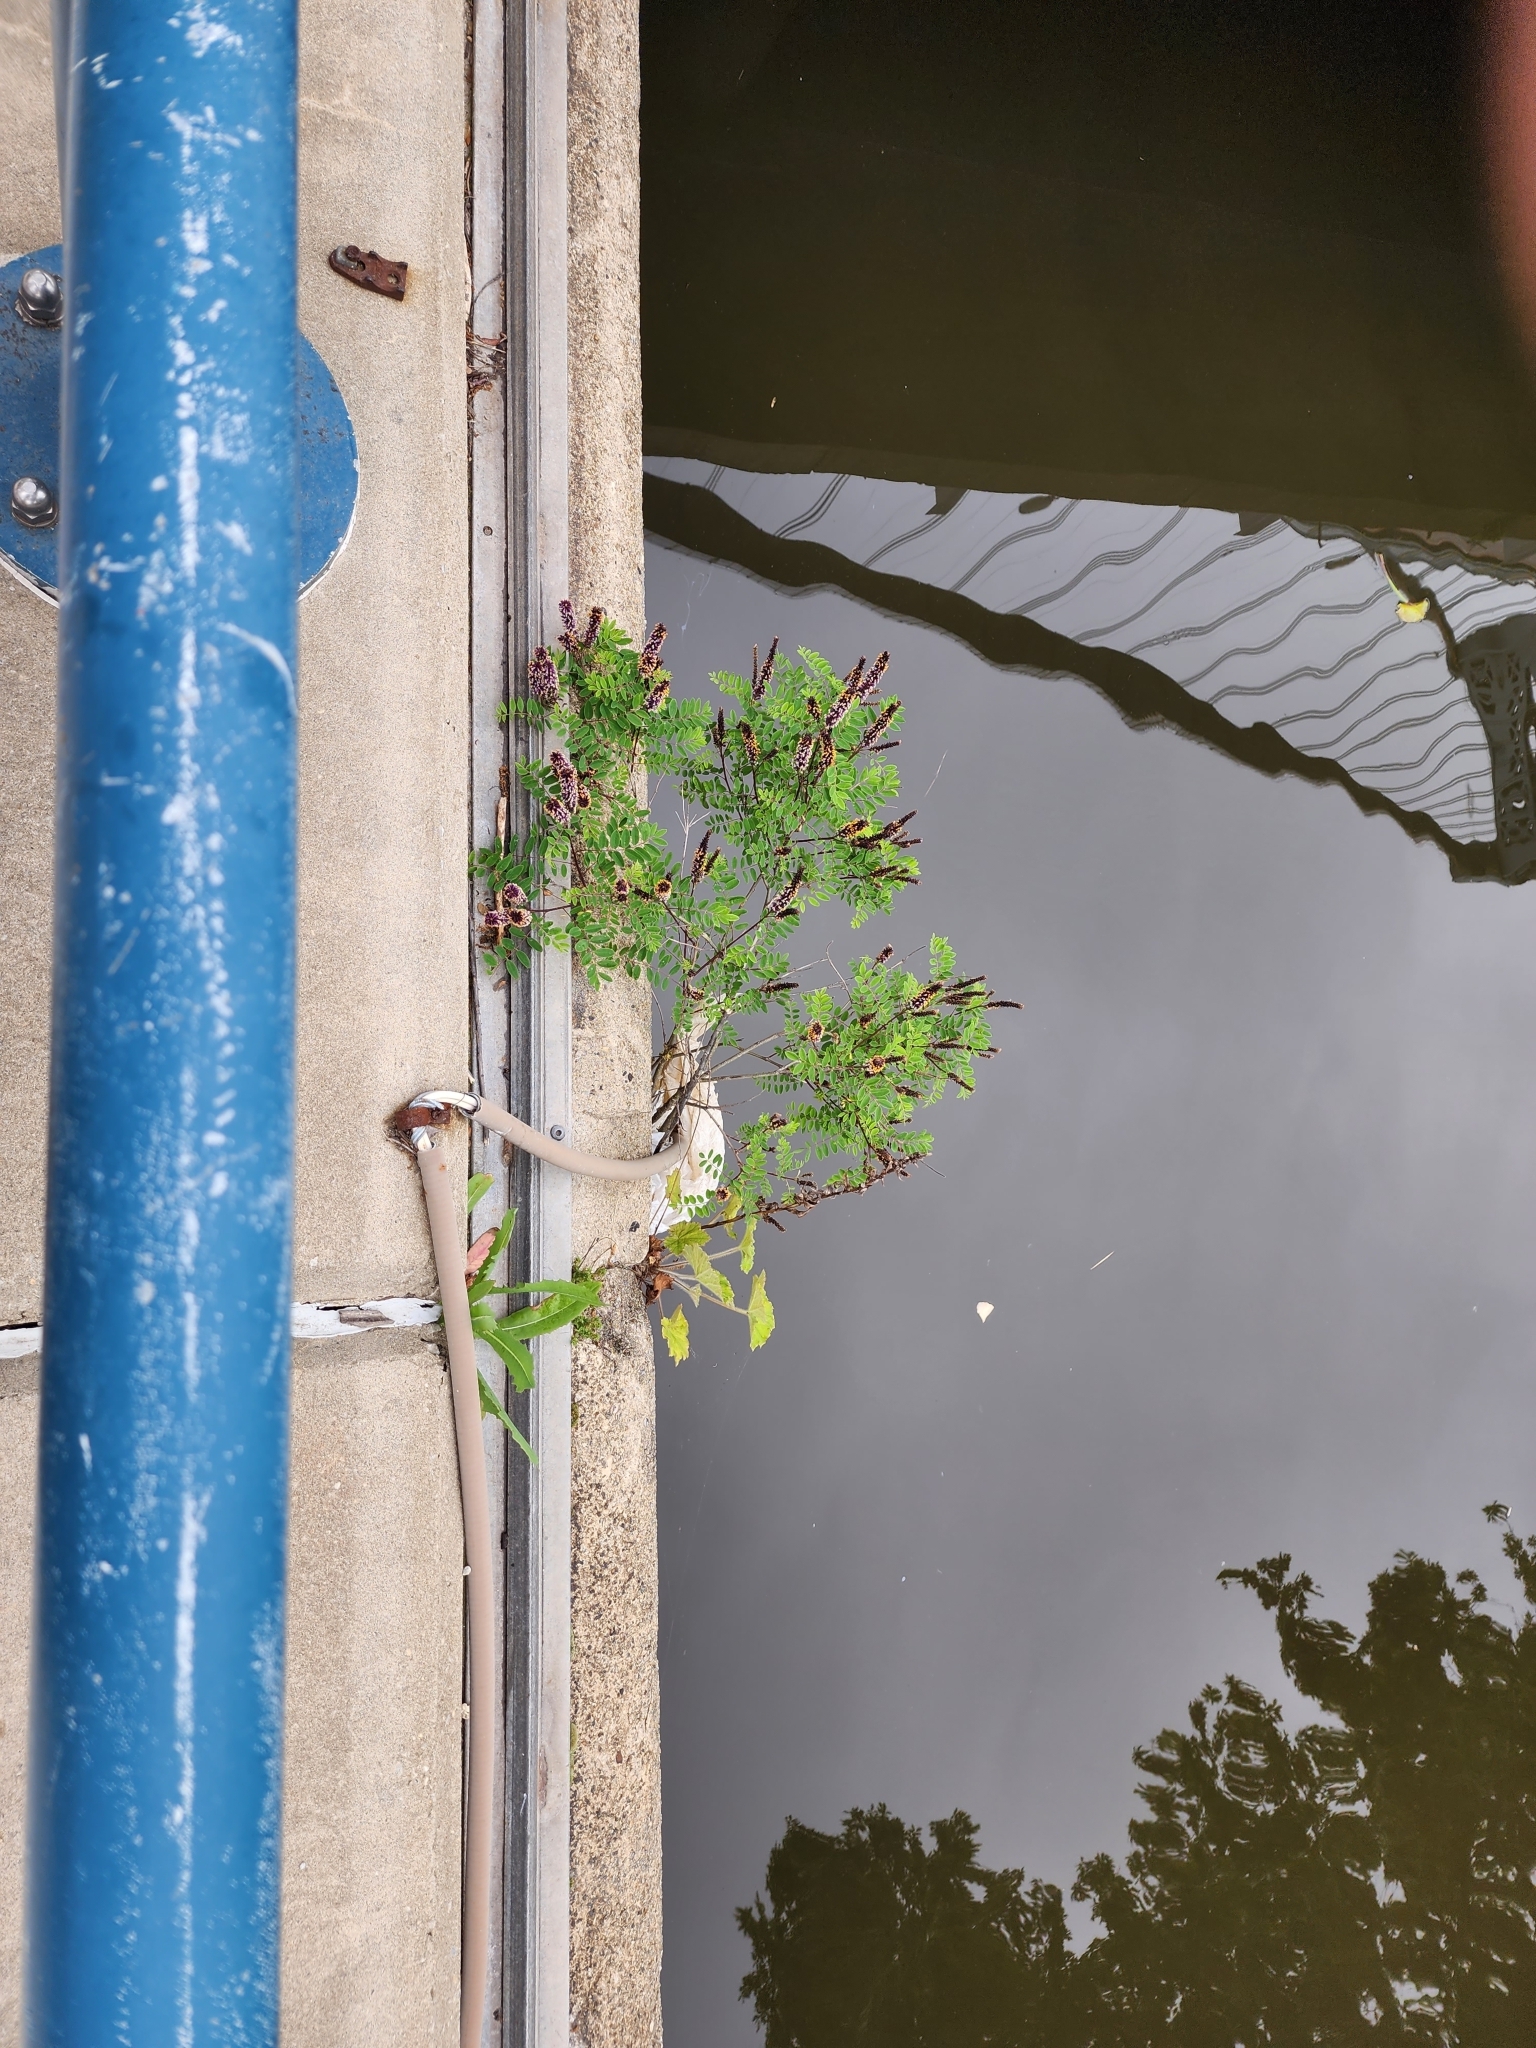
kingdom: Plantae
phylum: Tracheophyta
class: Magnoliopsida
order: Fabales
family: Fabaceae
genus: Amorpha
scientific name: Amorpha fruticosa
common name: False indigo
